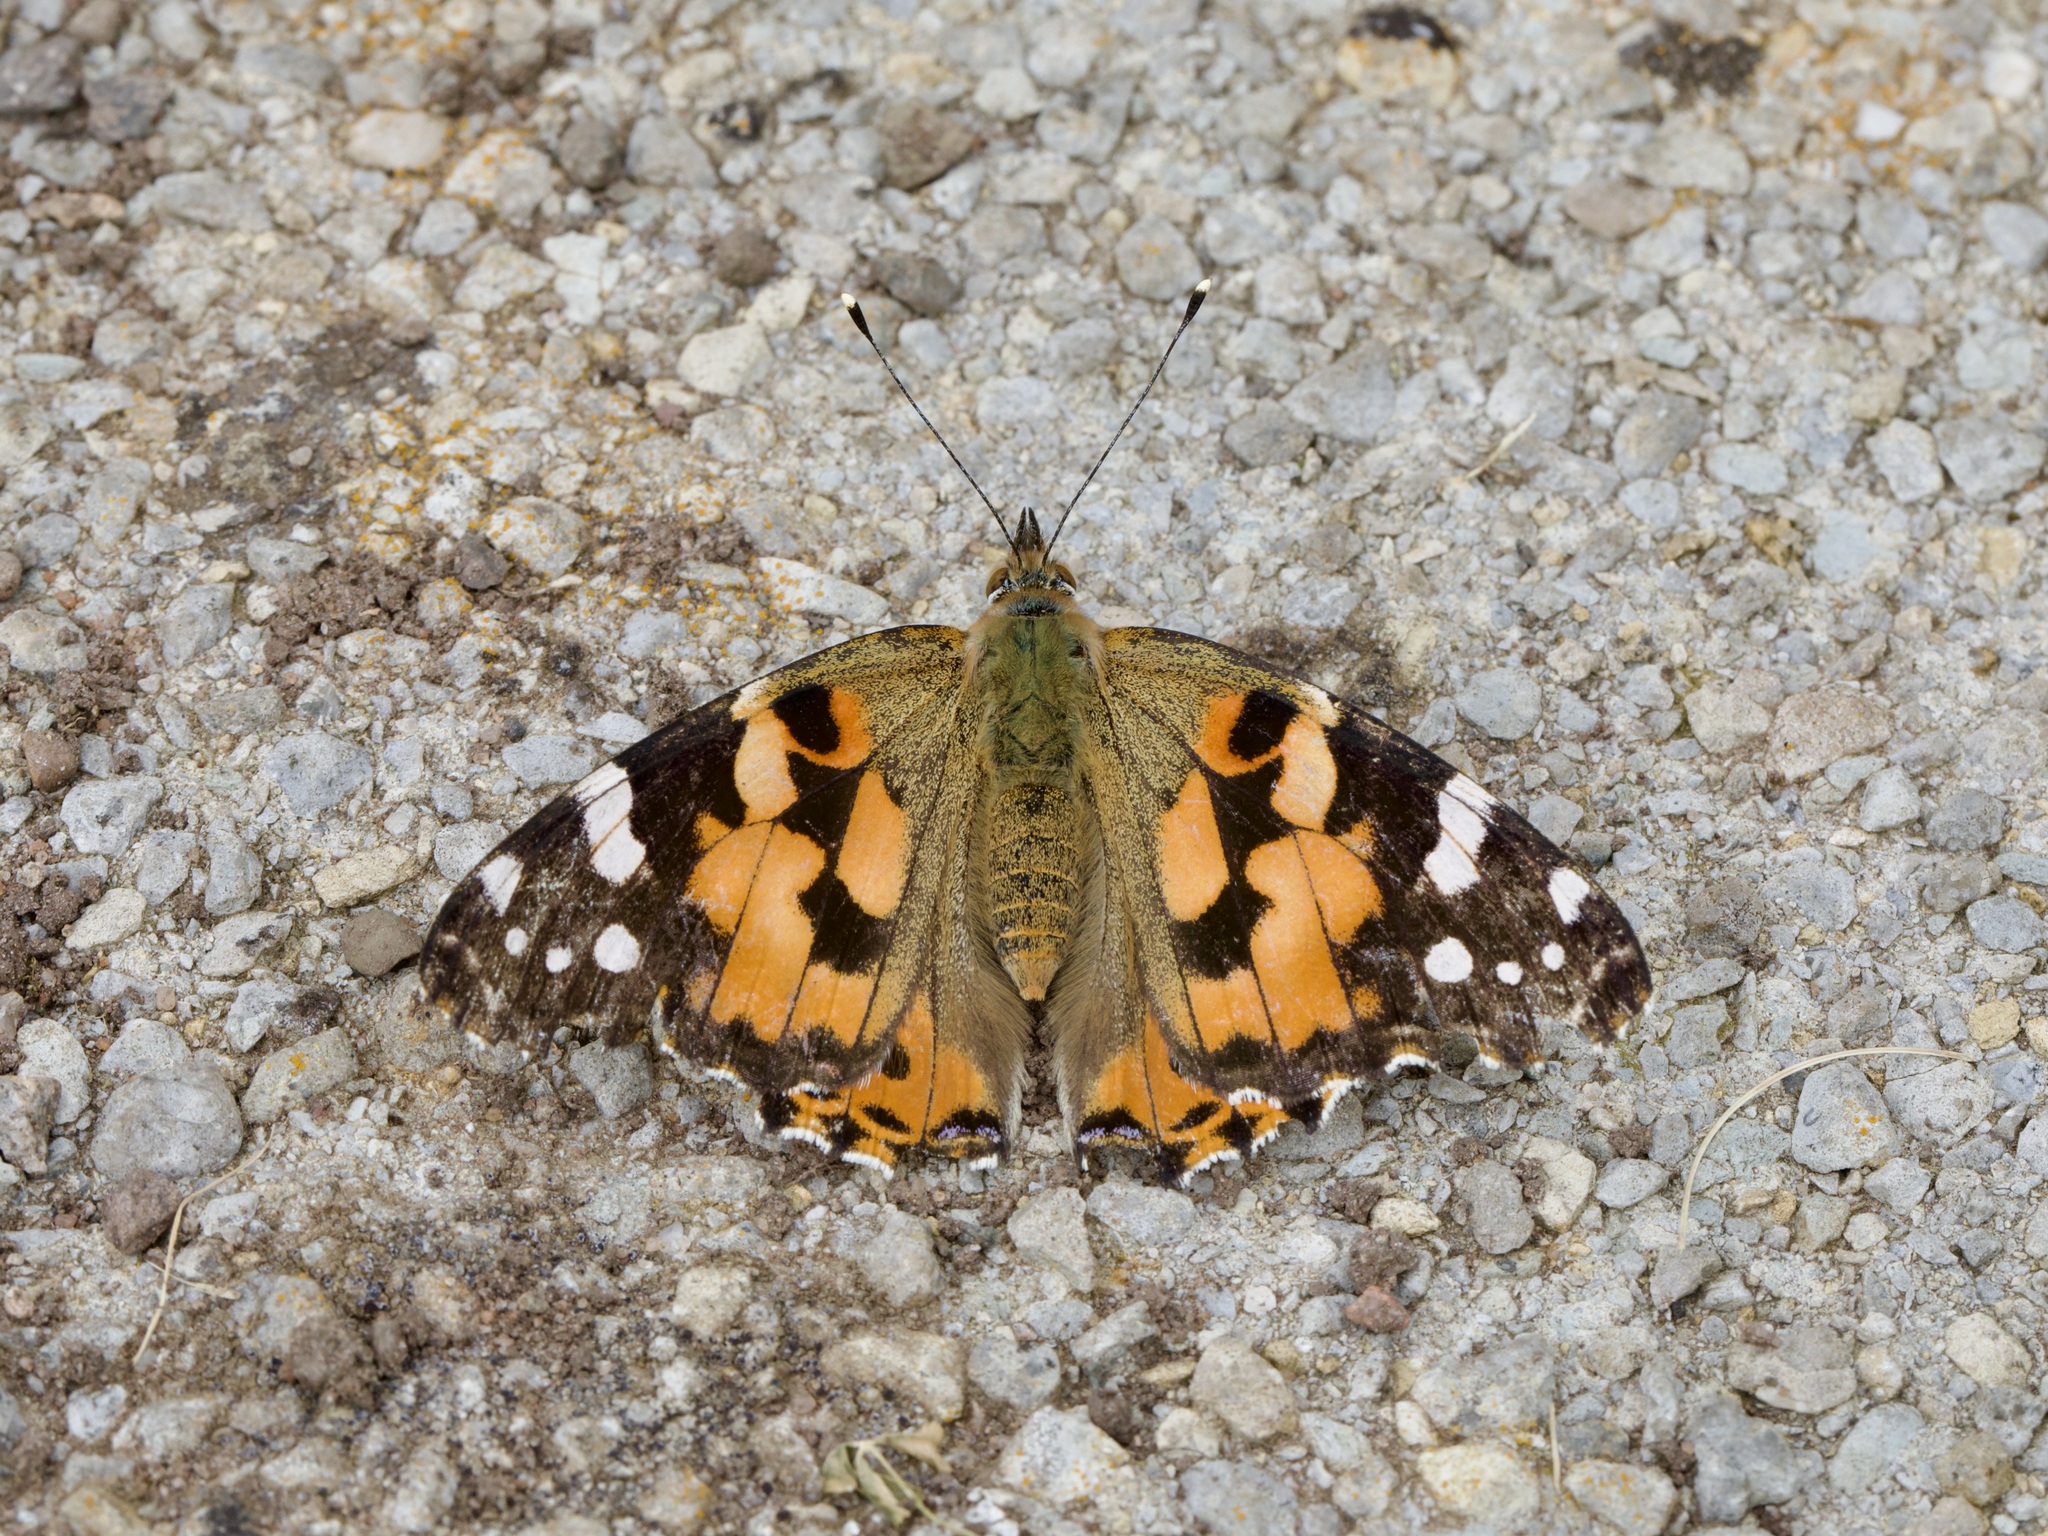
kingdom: Animalia
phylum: Arthropoda
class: Insecta
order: Lepidoptera
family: Nymphalidae
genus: Vanessa
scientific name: Vanessa cardui
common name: Painted lady
